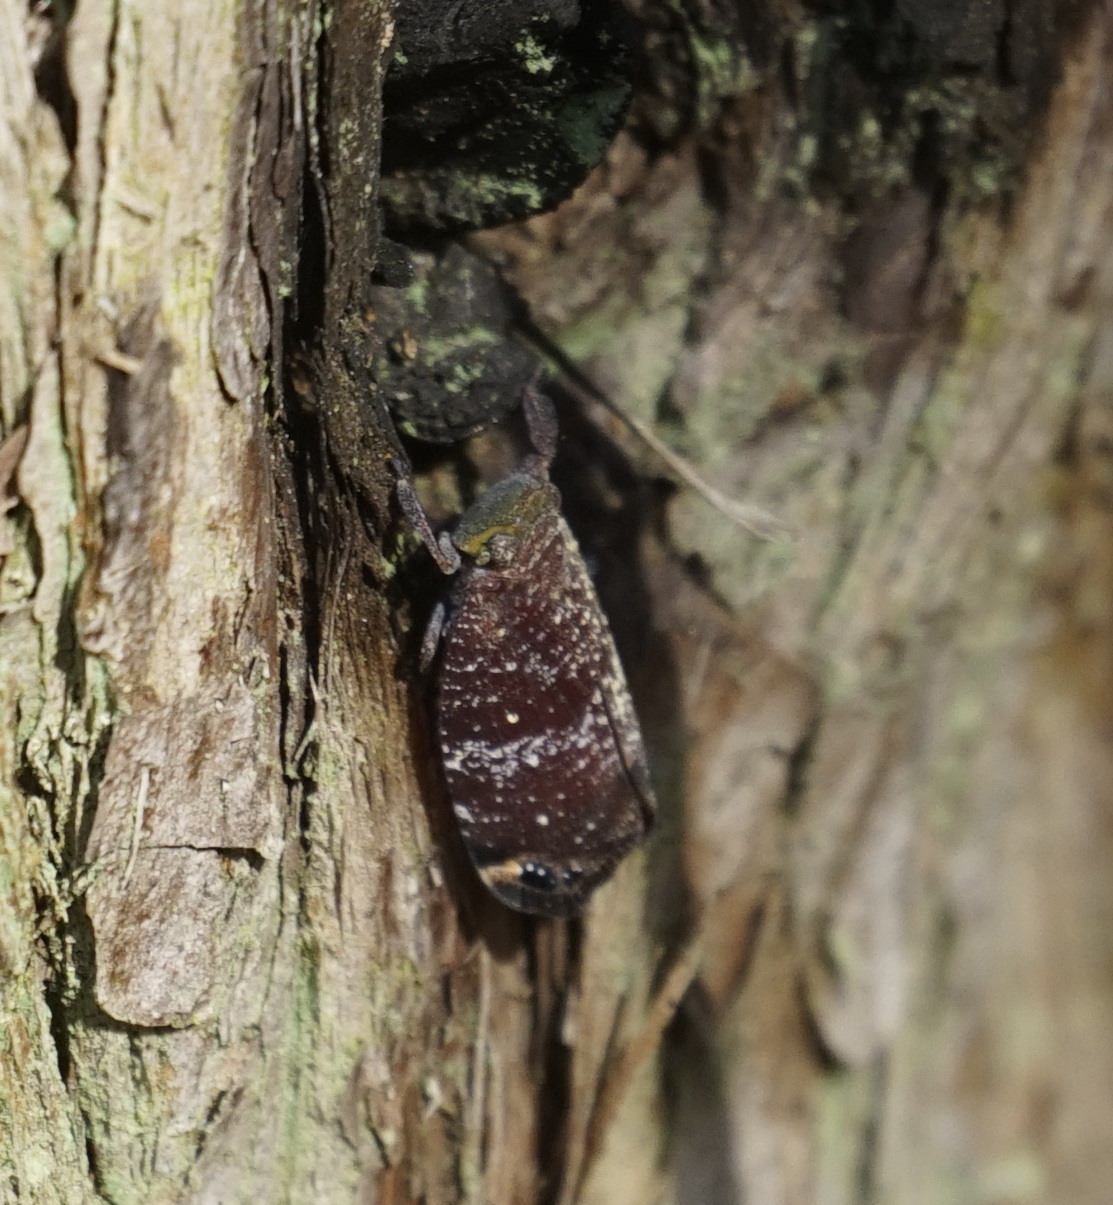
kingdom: Animalia
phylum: Arthropoda
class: Insecta
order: Hemiptera
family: Eurybrachidae
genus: Platybrachys
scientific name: Platybrachys decemmacula
